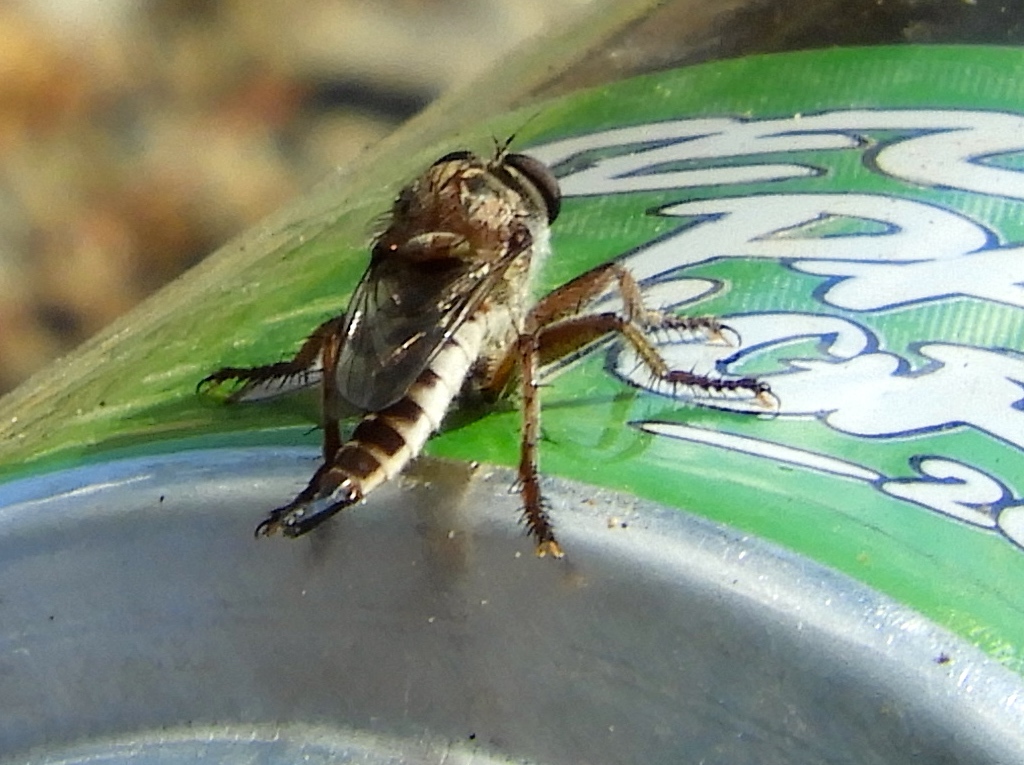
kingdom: Animalia
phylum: Arthropoda
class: Insecta
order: Diptera
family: Asilidae
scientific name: Asilidae
